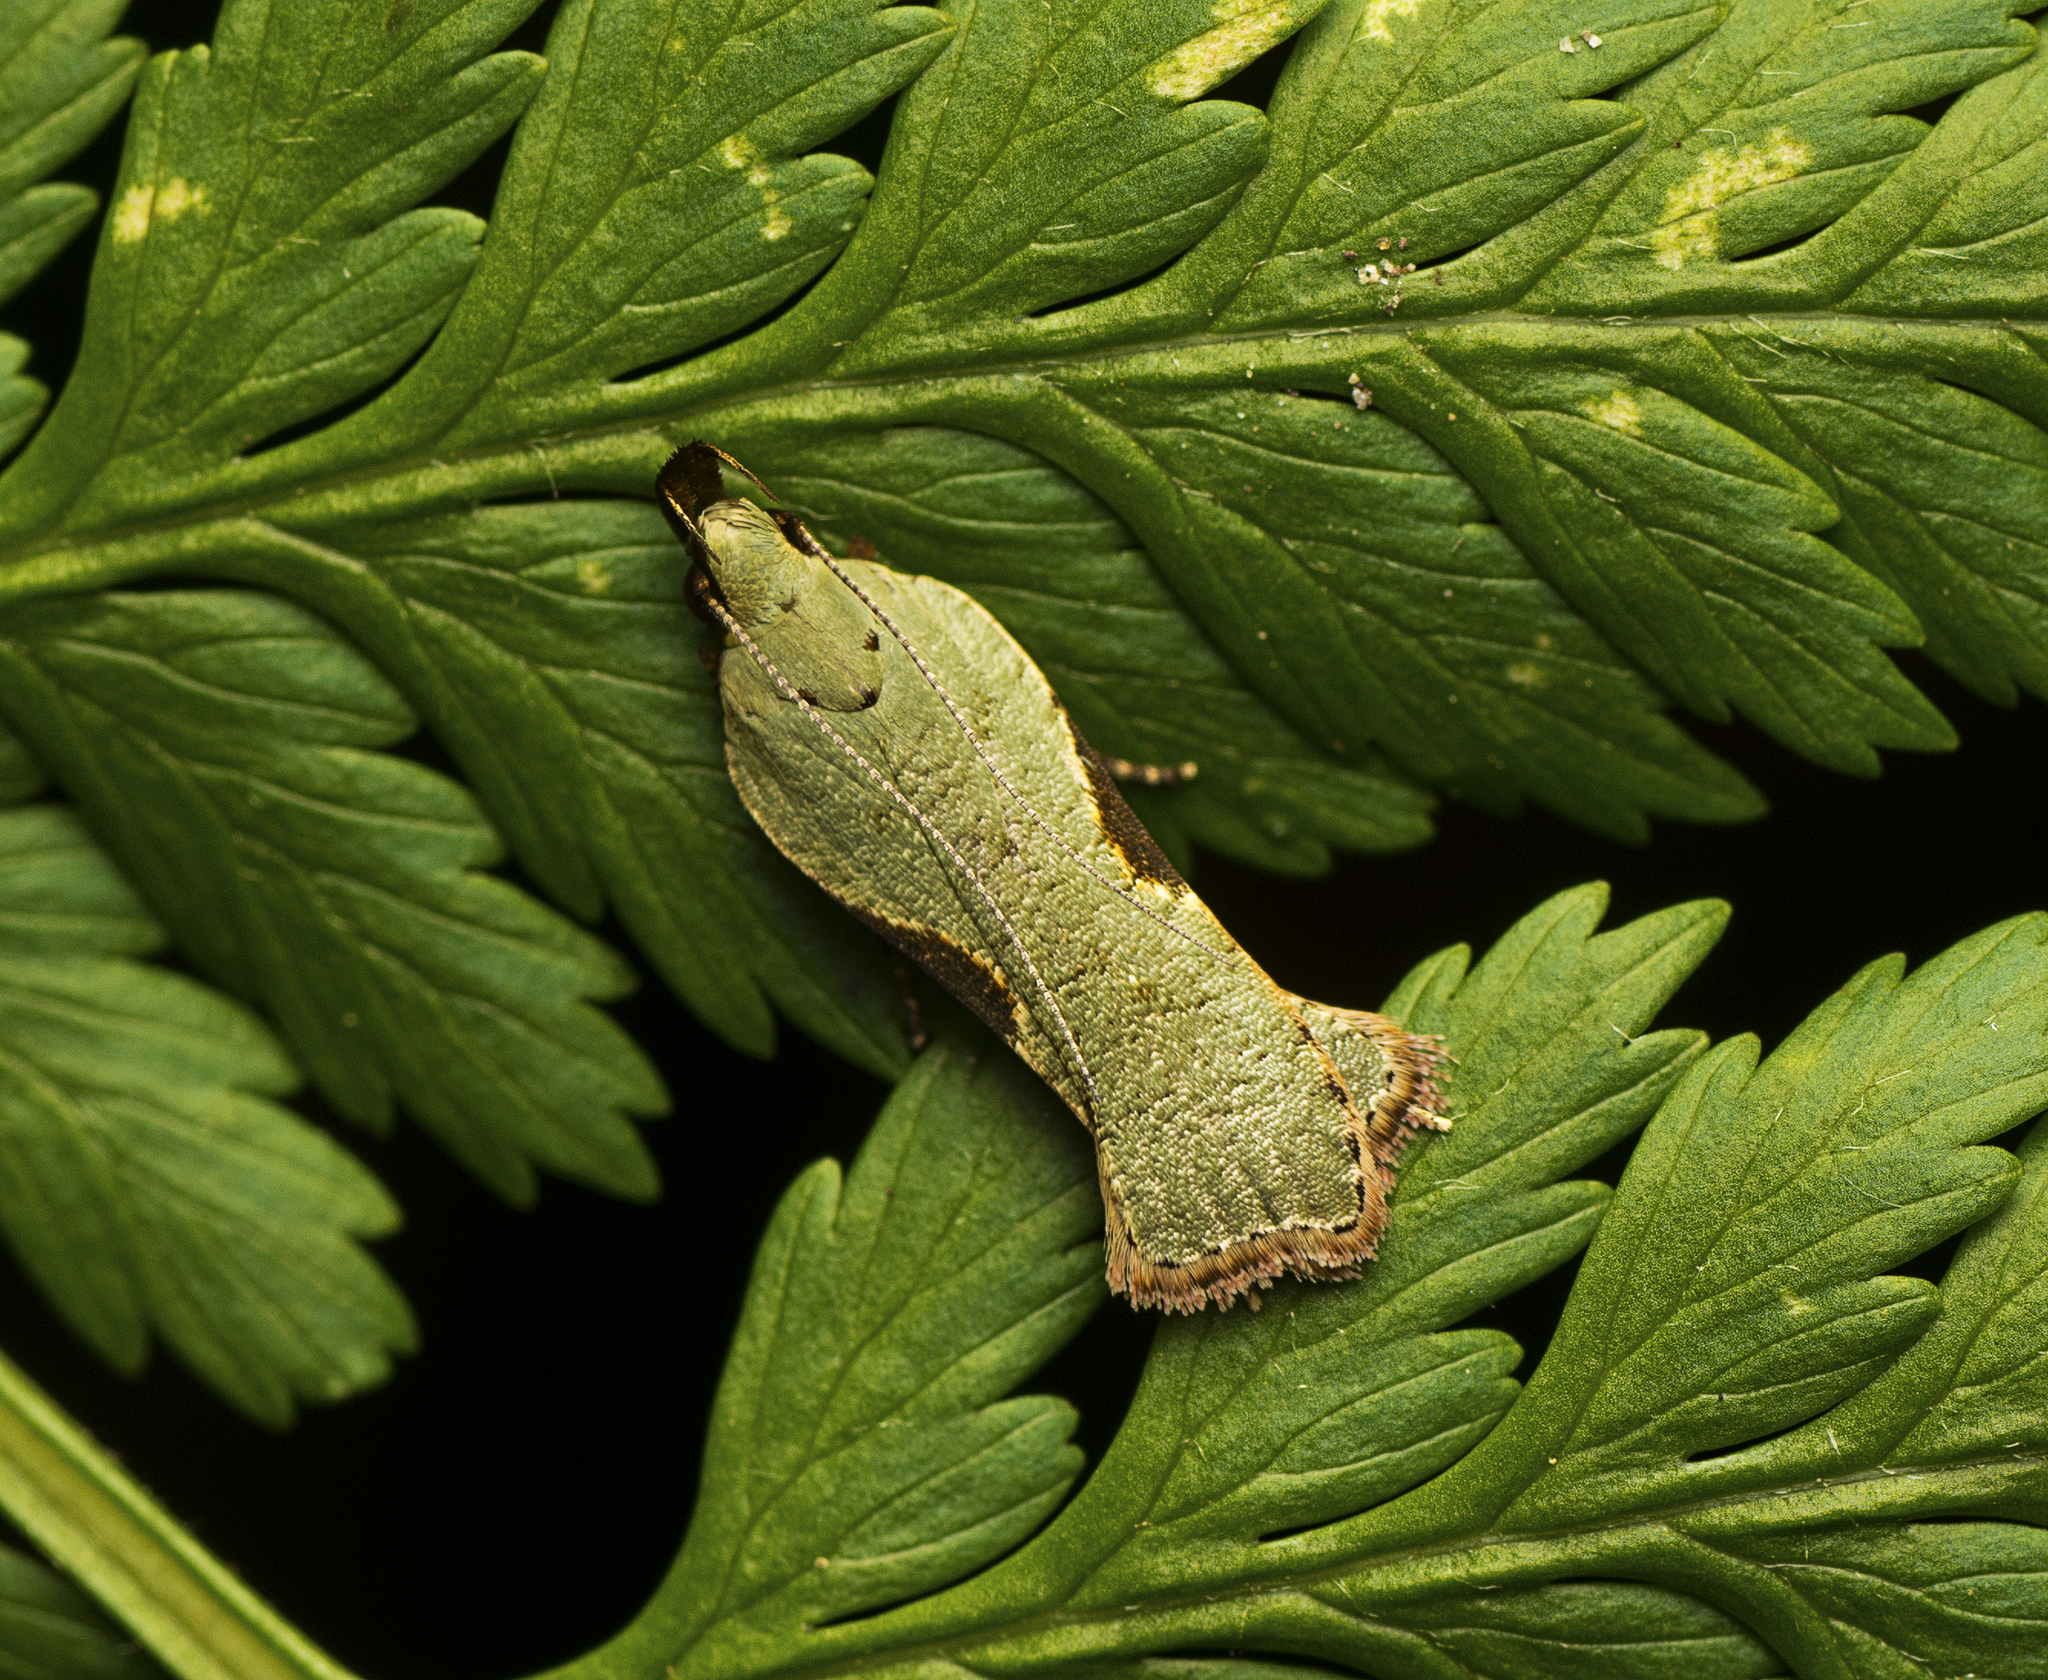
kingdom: Animalia
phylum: Arthropoda
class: Insecta
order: Lepidoptera
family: Gelechiidae
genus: Dichomeris
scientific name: Dichomeris ochreoviridella
